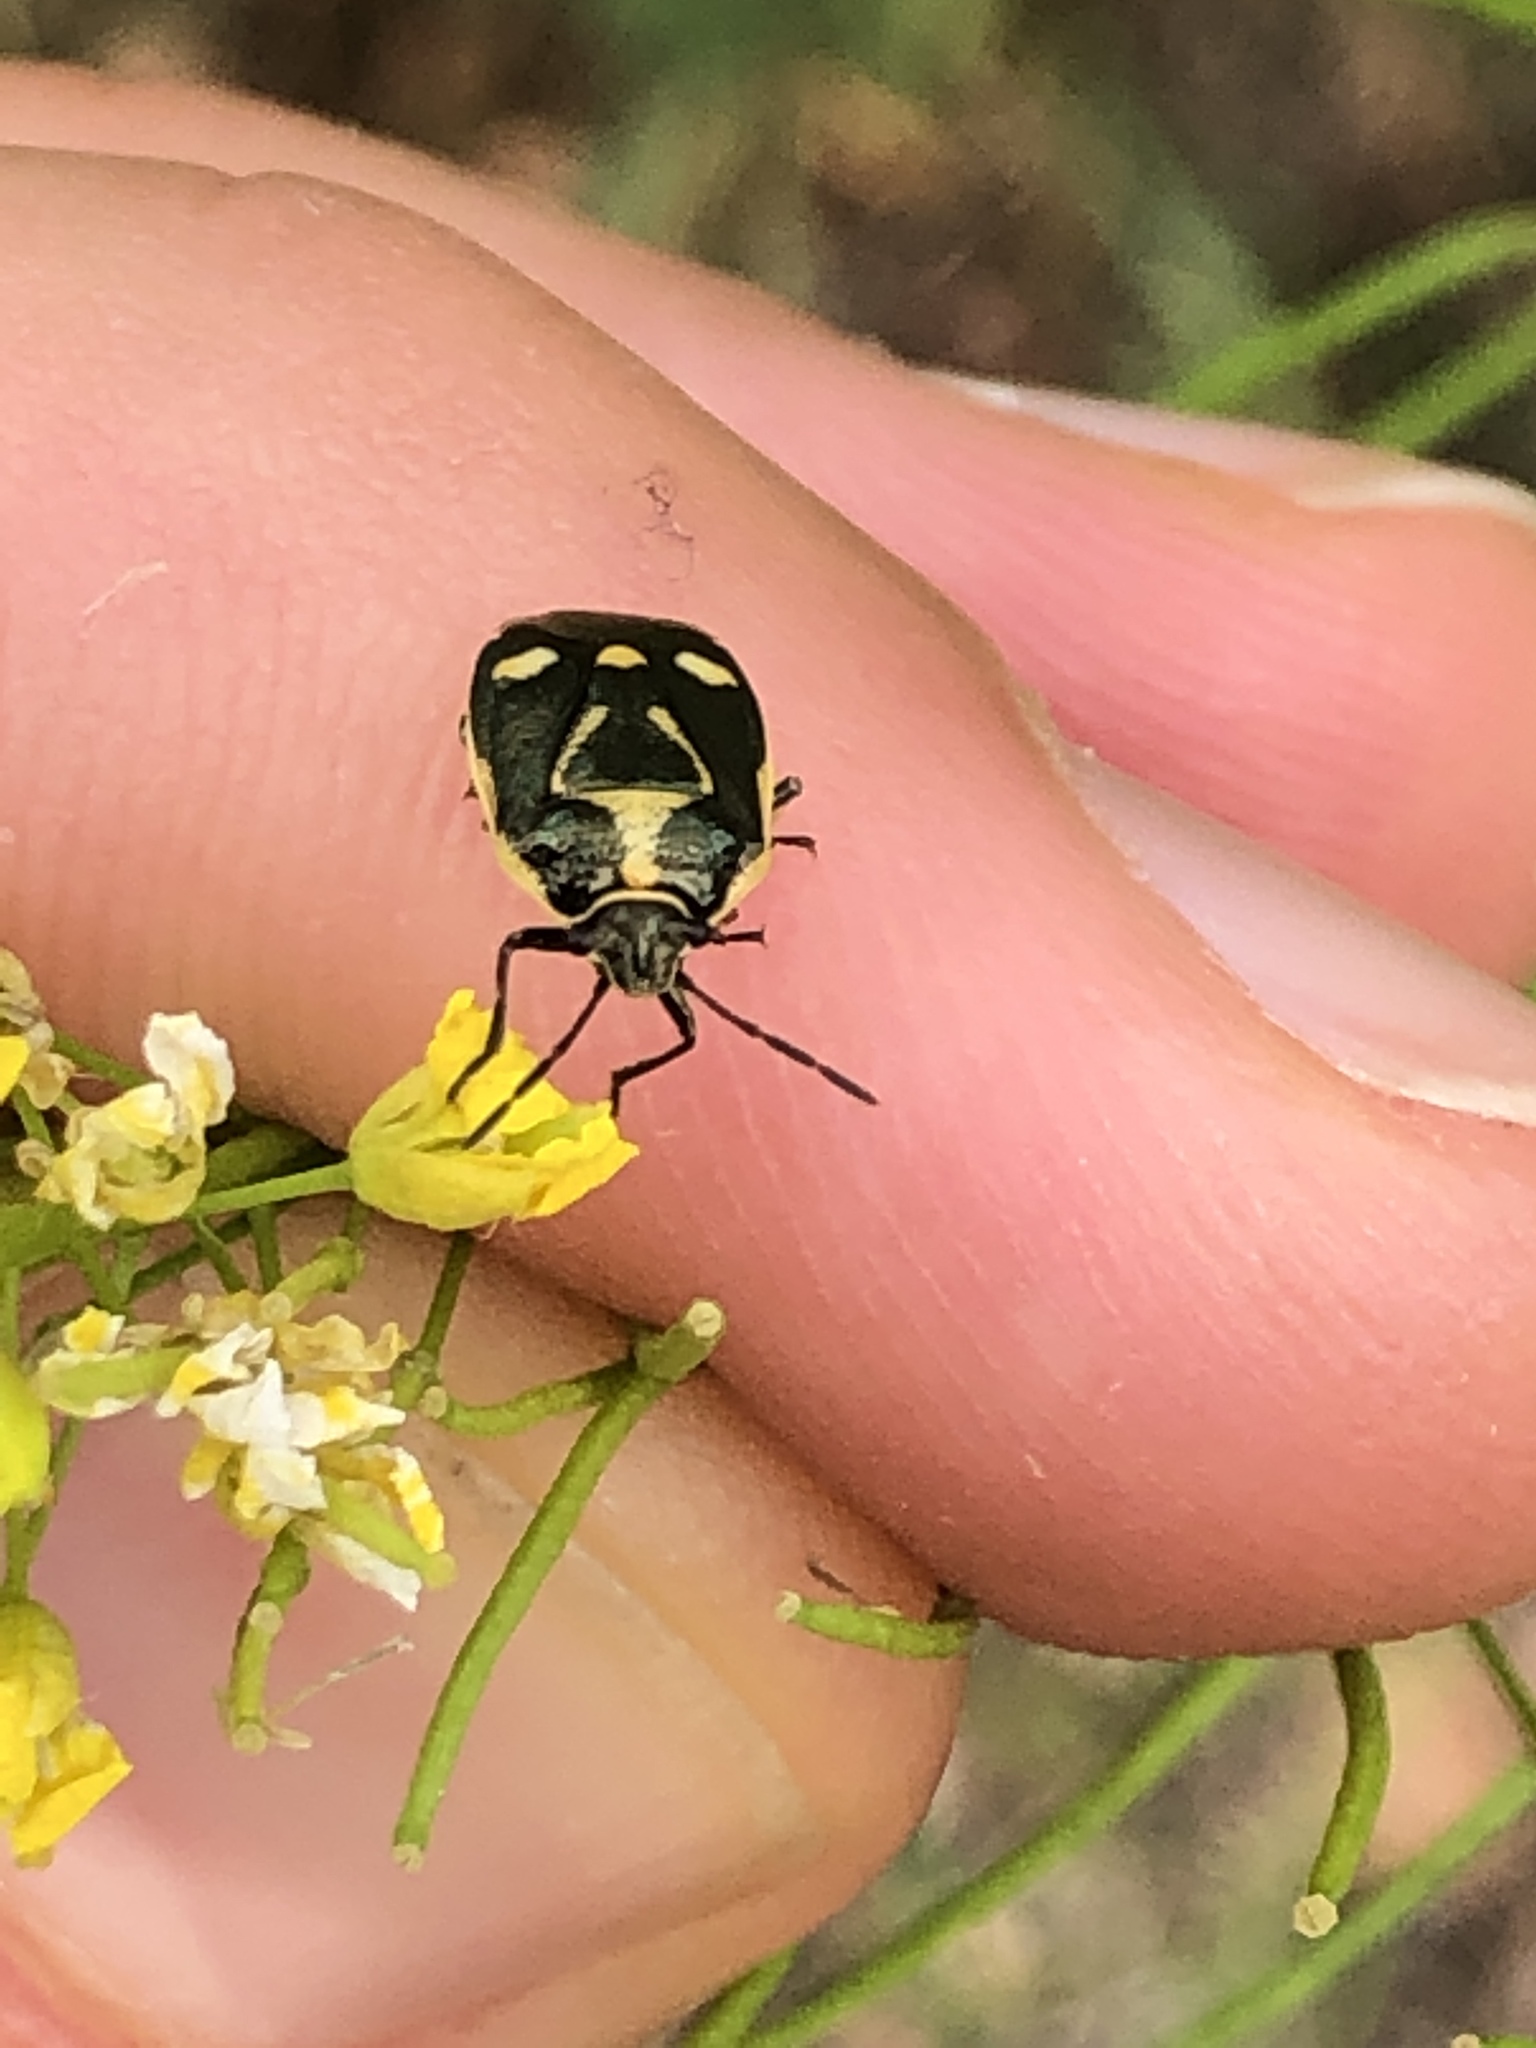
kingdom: Animalia
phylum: Arthropoda
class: Insecta
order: Hemiptera
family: Pentatomidae
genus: Eurydema
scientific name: Eurydema oleracea
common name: Cabbage bug
